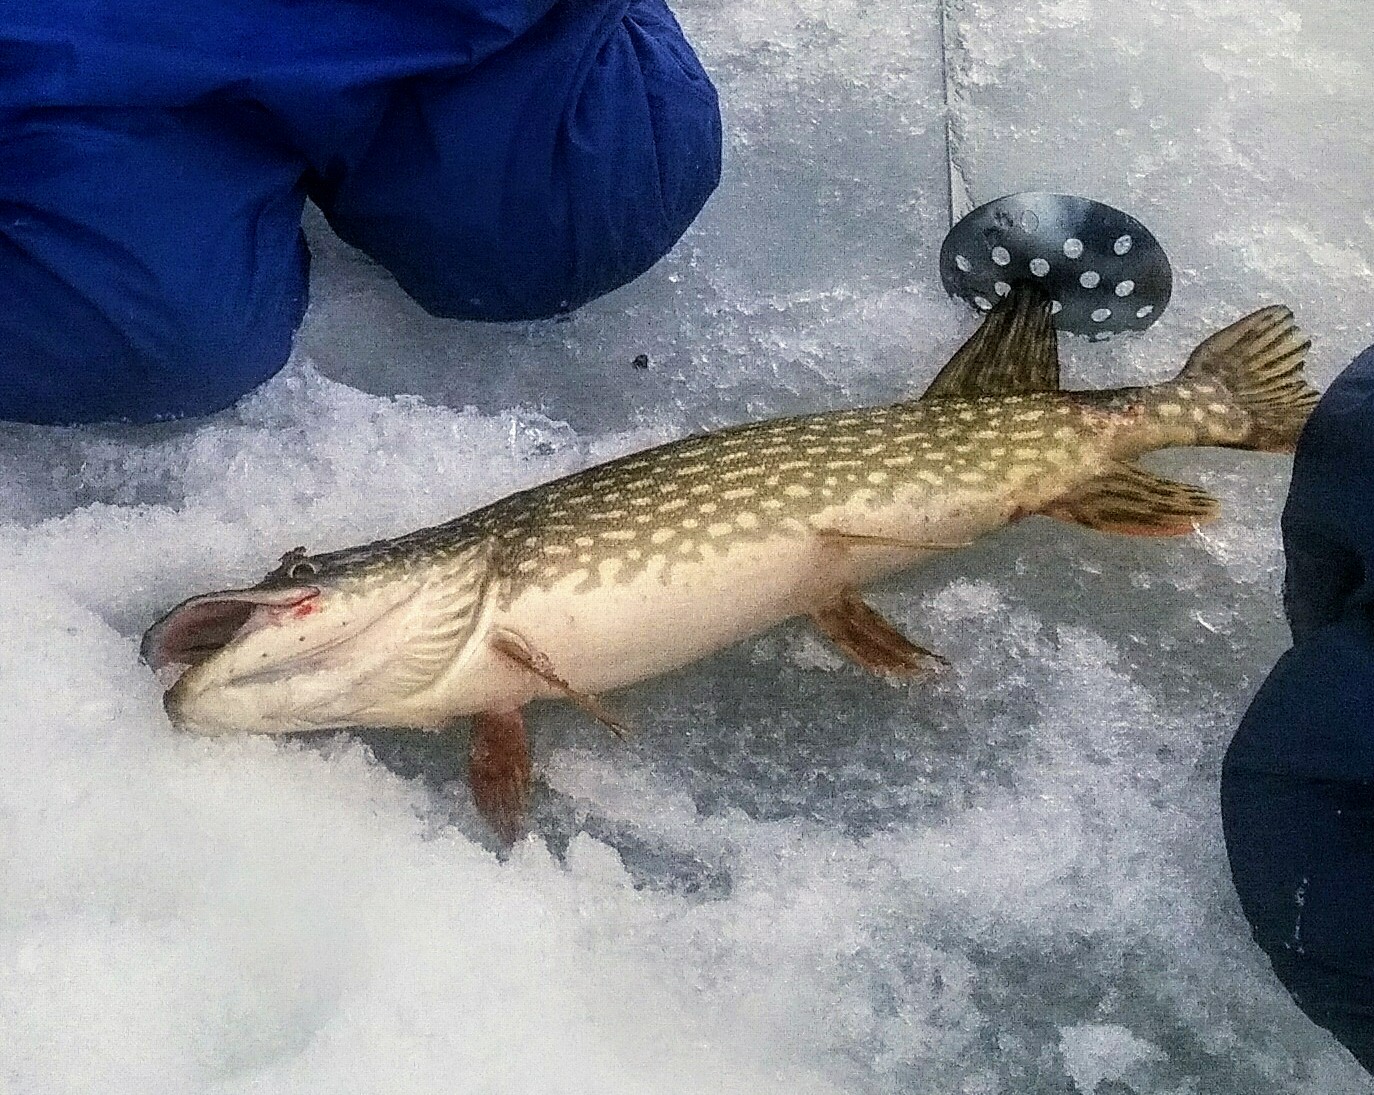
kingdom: Animalia
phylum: Chordata
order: Esociformes
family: Esocidae
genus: Esox
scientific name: Esox lucius
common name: Northern pike
